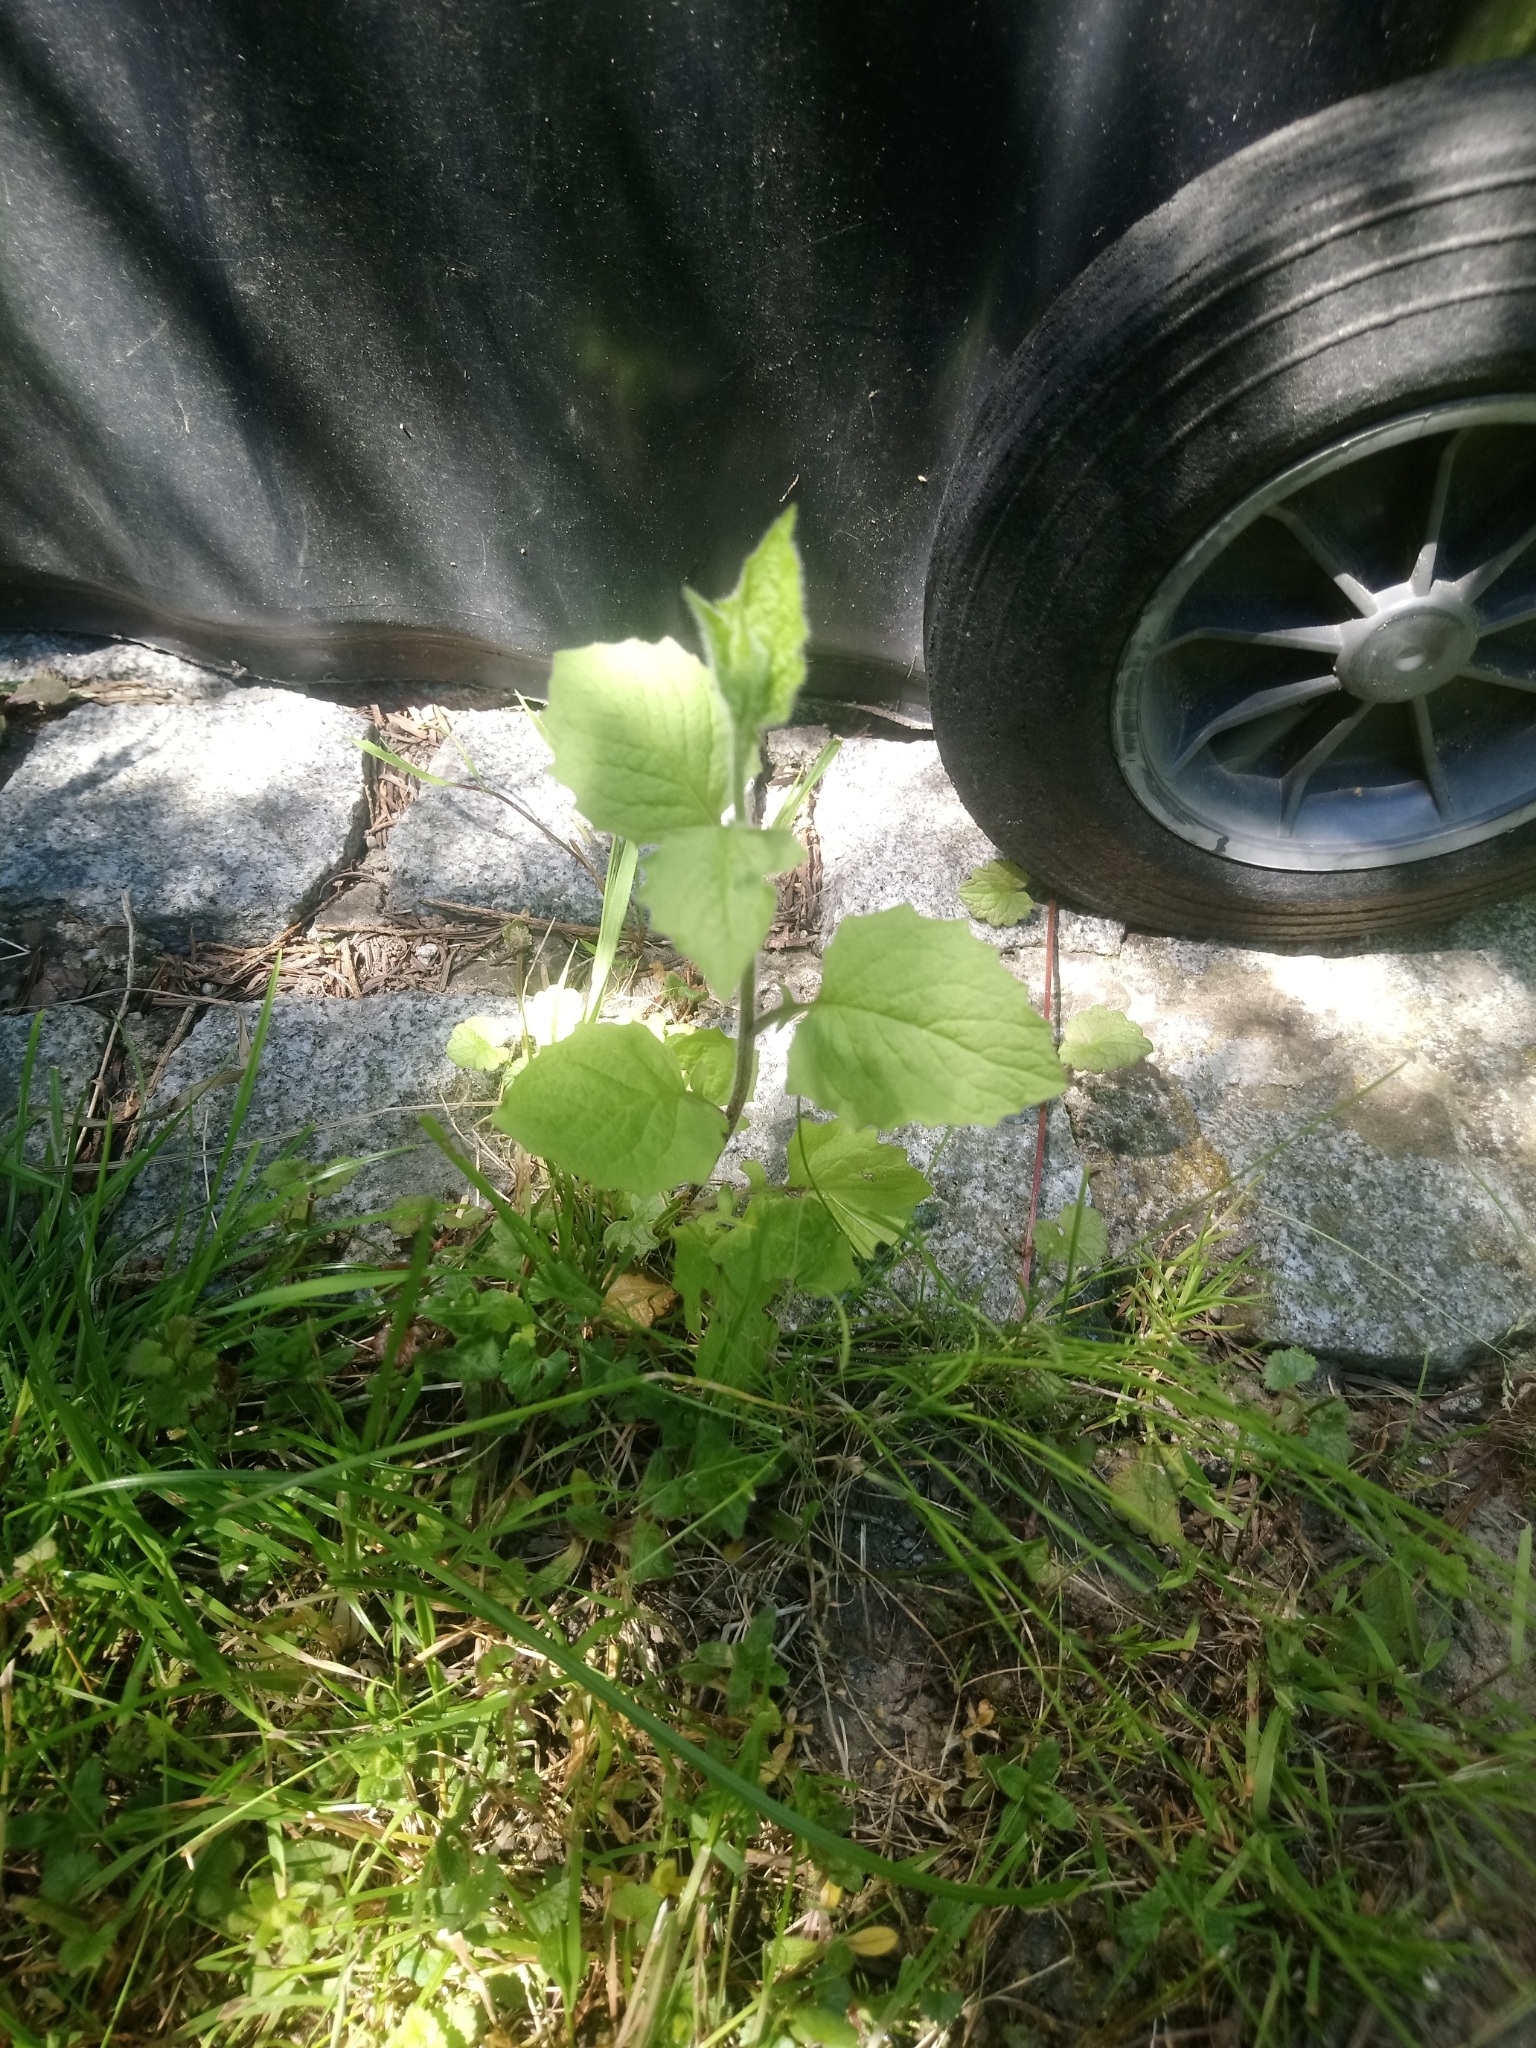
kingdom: Plantae
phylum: Tracheophyta
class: Magnoliopsida
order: Asterales
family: Asteraceae
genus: Lapsana
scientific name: Lapsana communis
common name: Nipplewort
